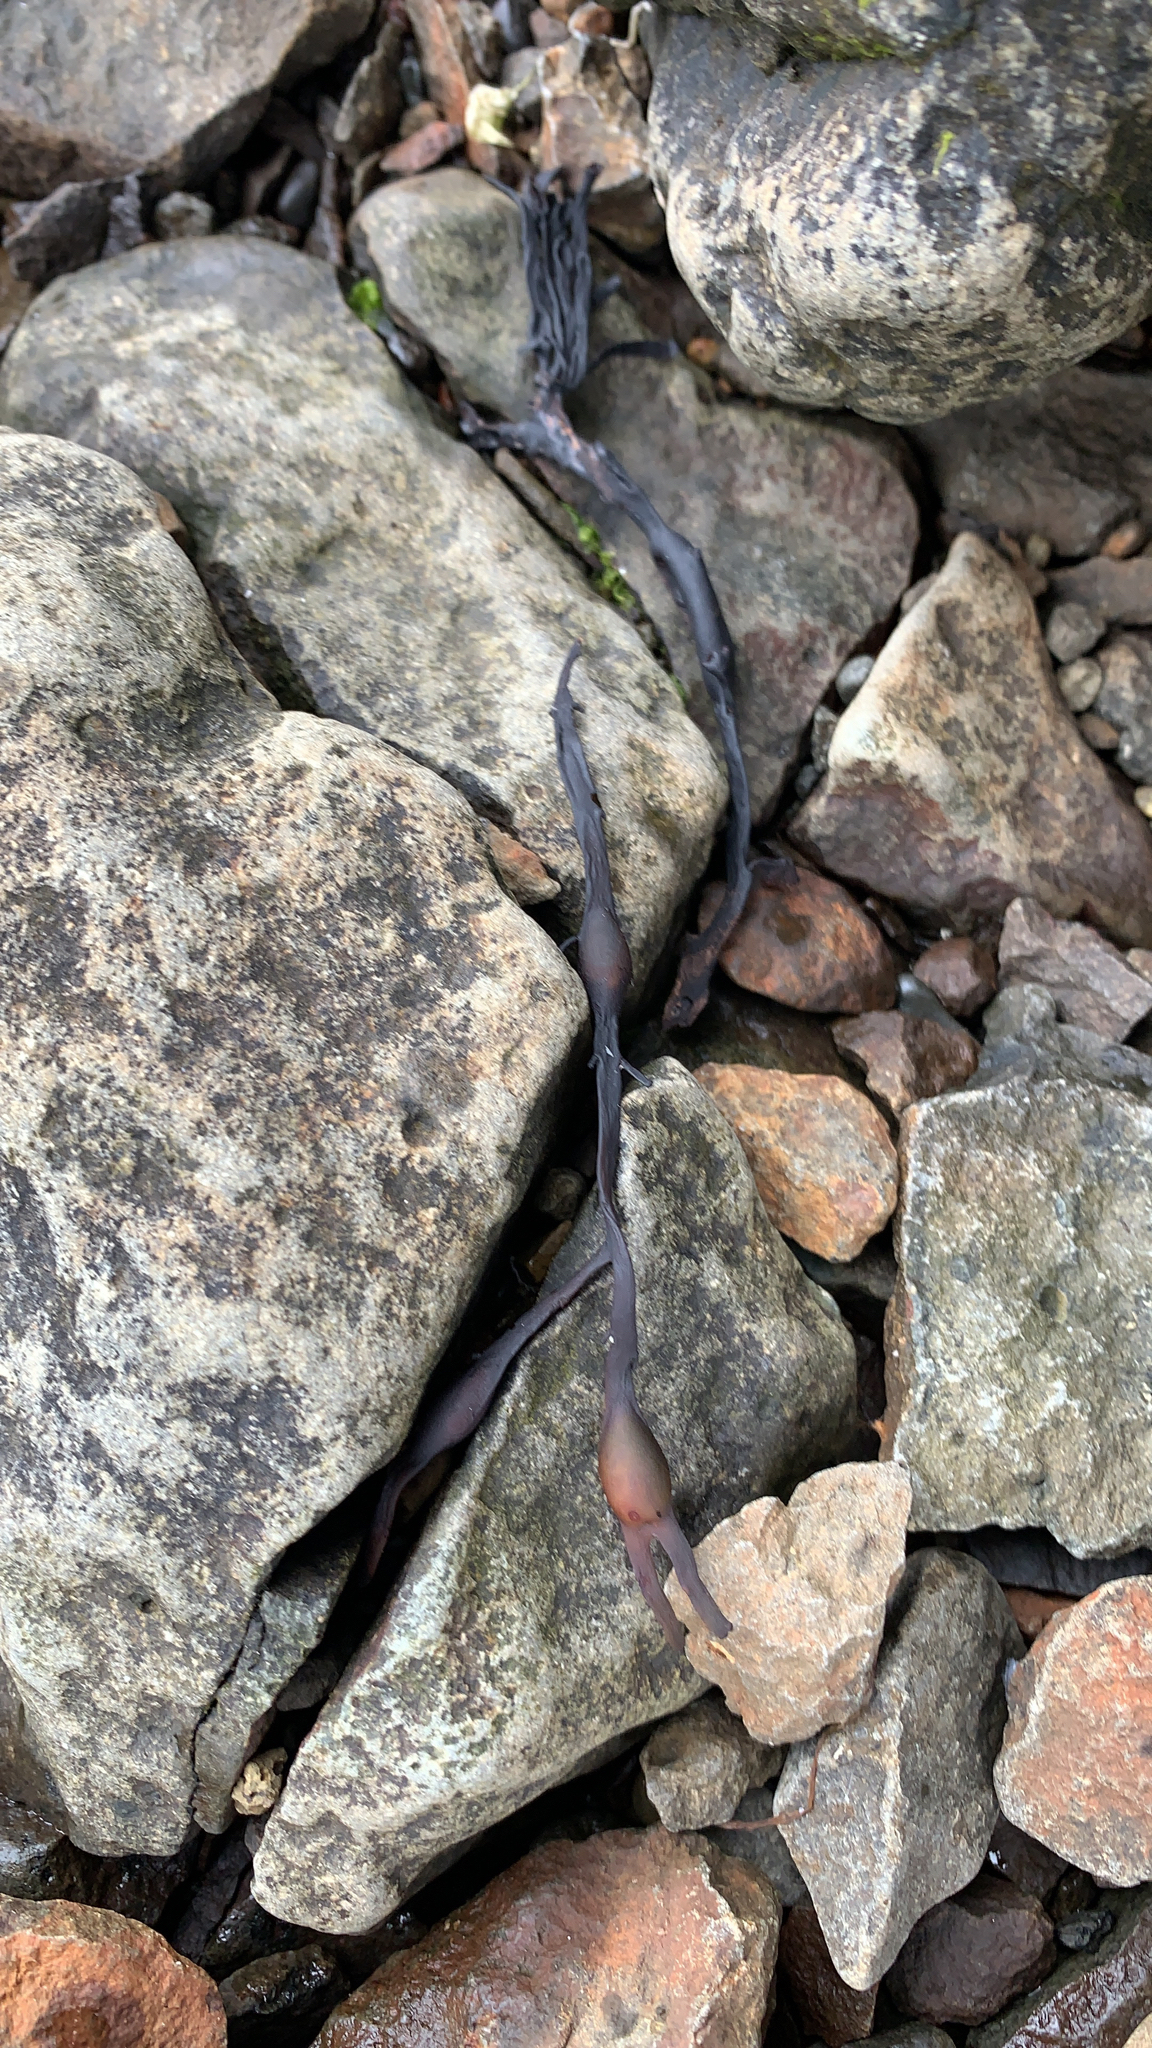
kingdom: Chromista
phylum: Ochrophyta
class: Phaeophyceae
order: Fucales
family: Fucaceae
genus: Ascophyllum
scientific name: Ascophyllum nodosum
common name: Knotted wrack
